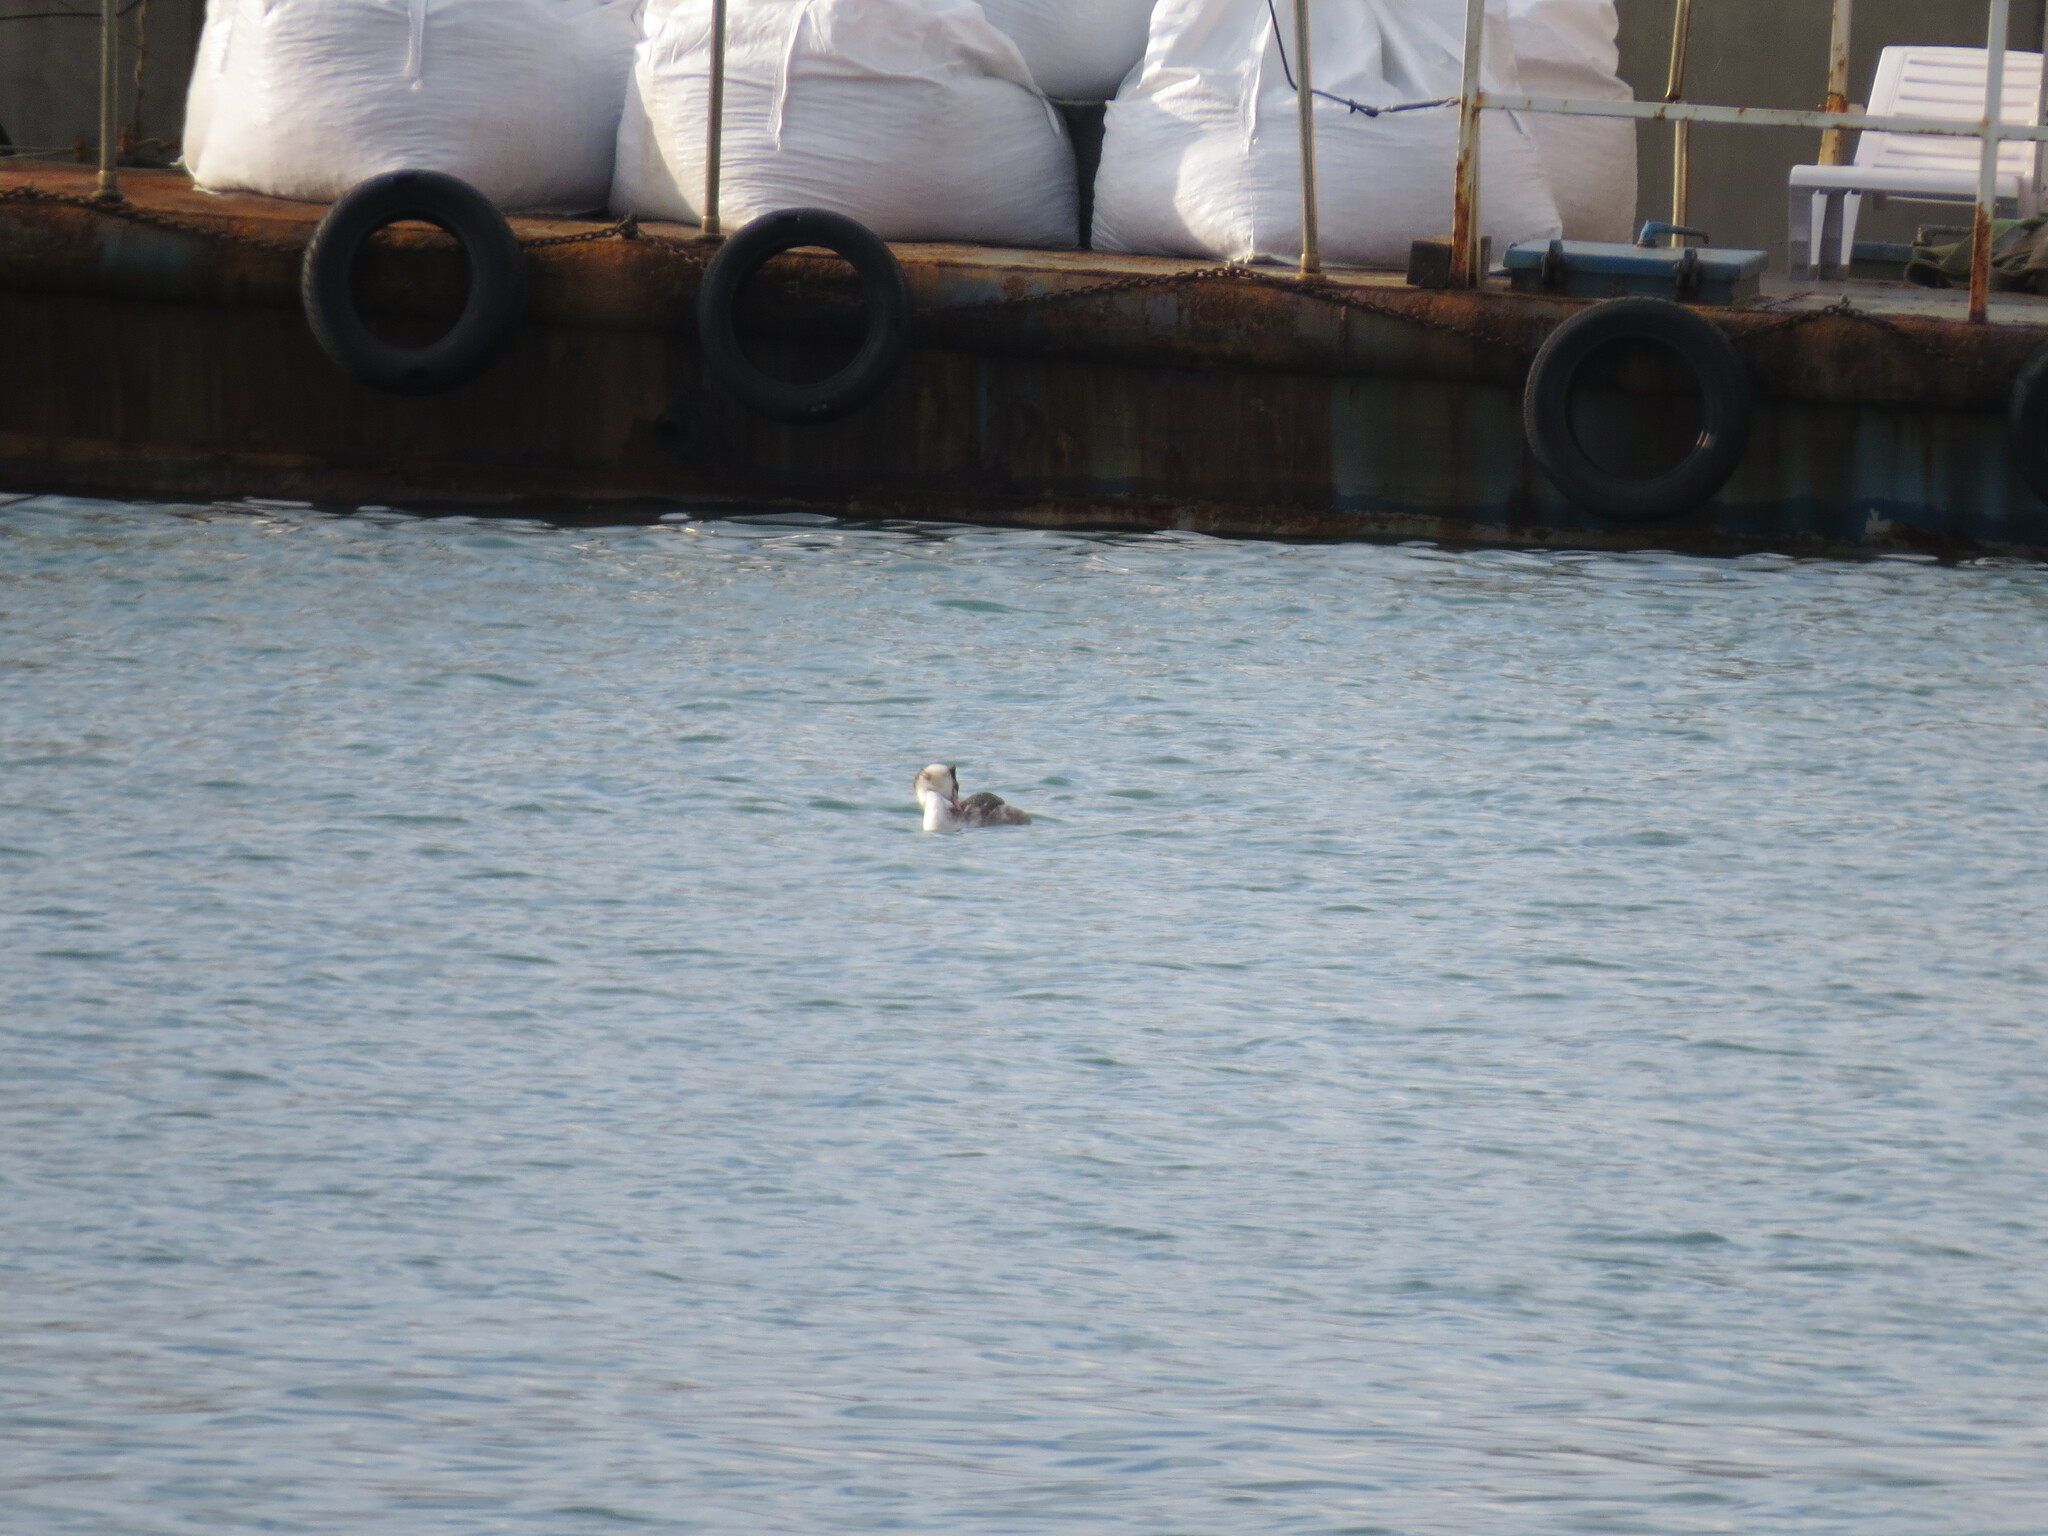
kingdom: Animalia
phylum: Chordata
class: Aves
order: Podicipediformes
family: Podicipedidae
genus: Podiceps
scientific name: Podiceps cristatus
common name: Great crested grebe
